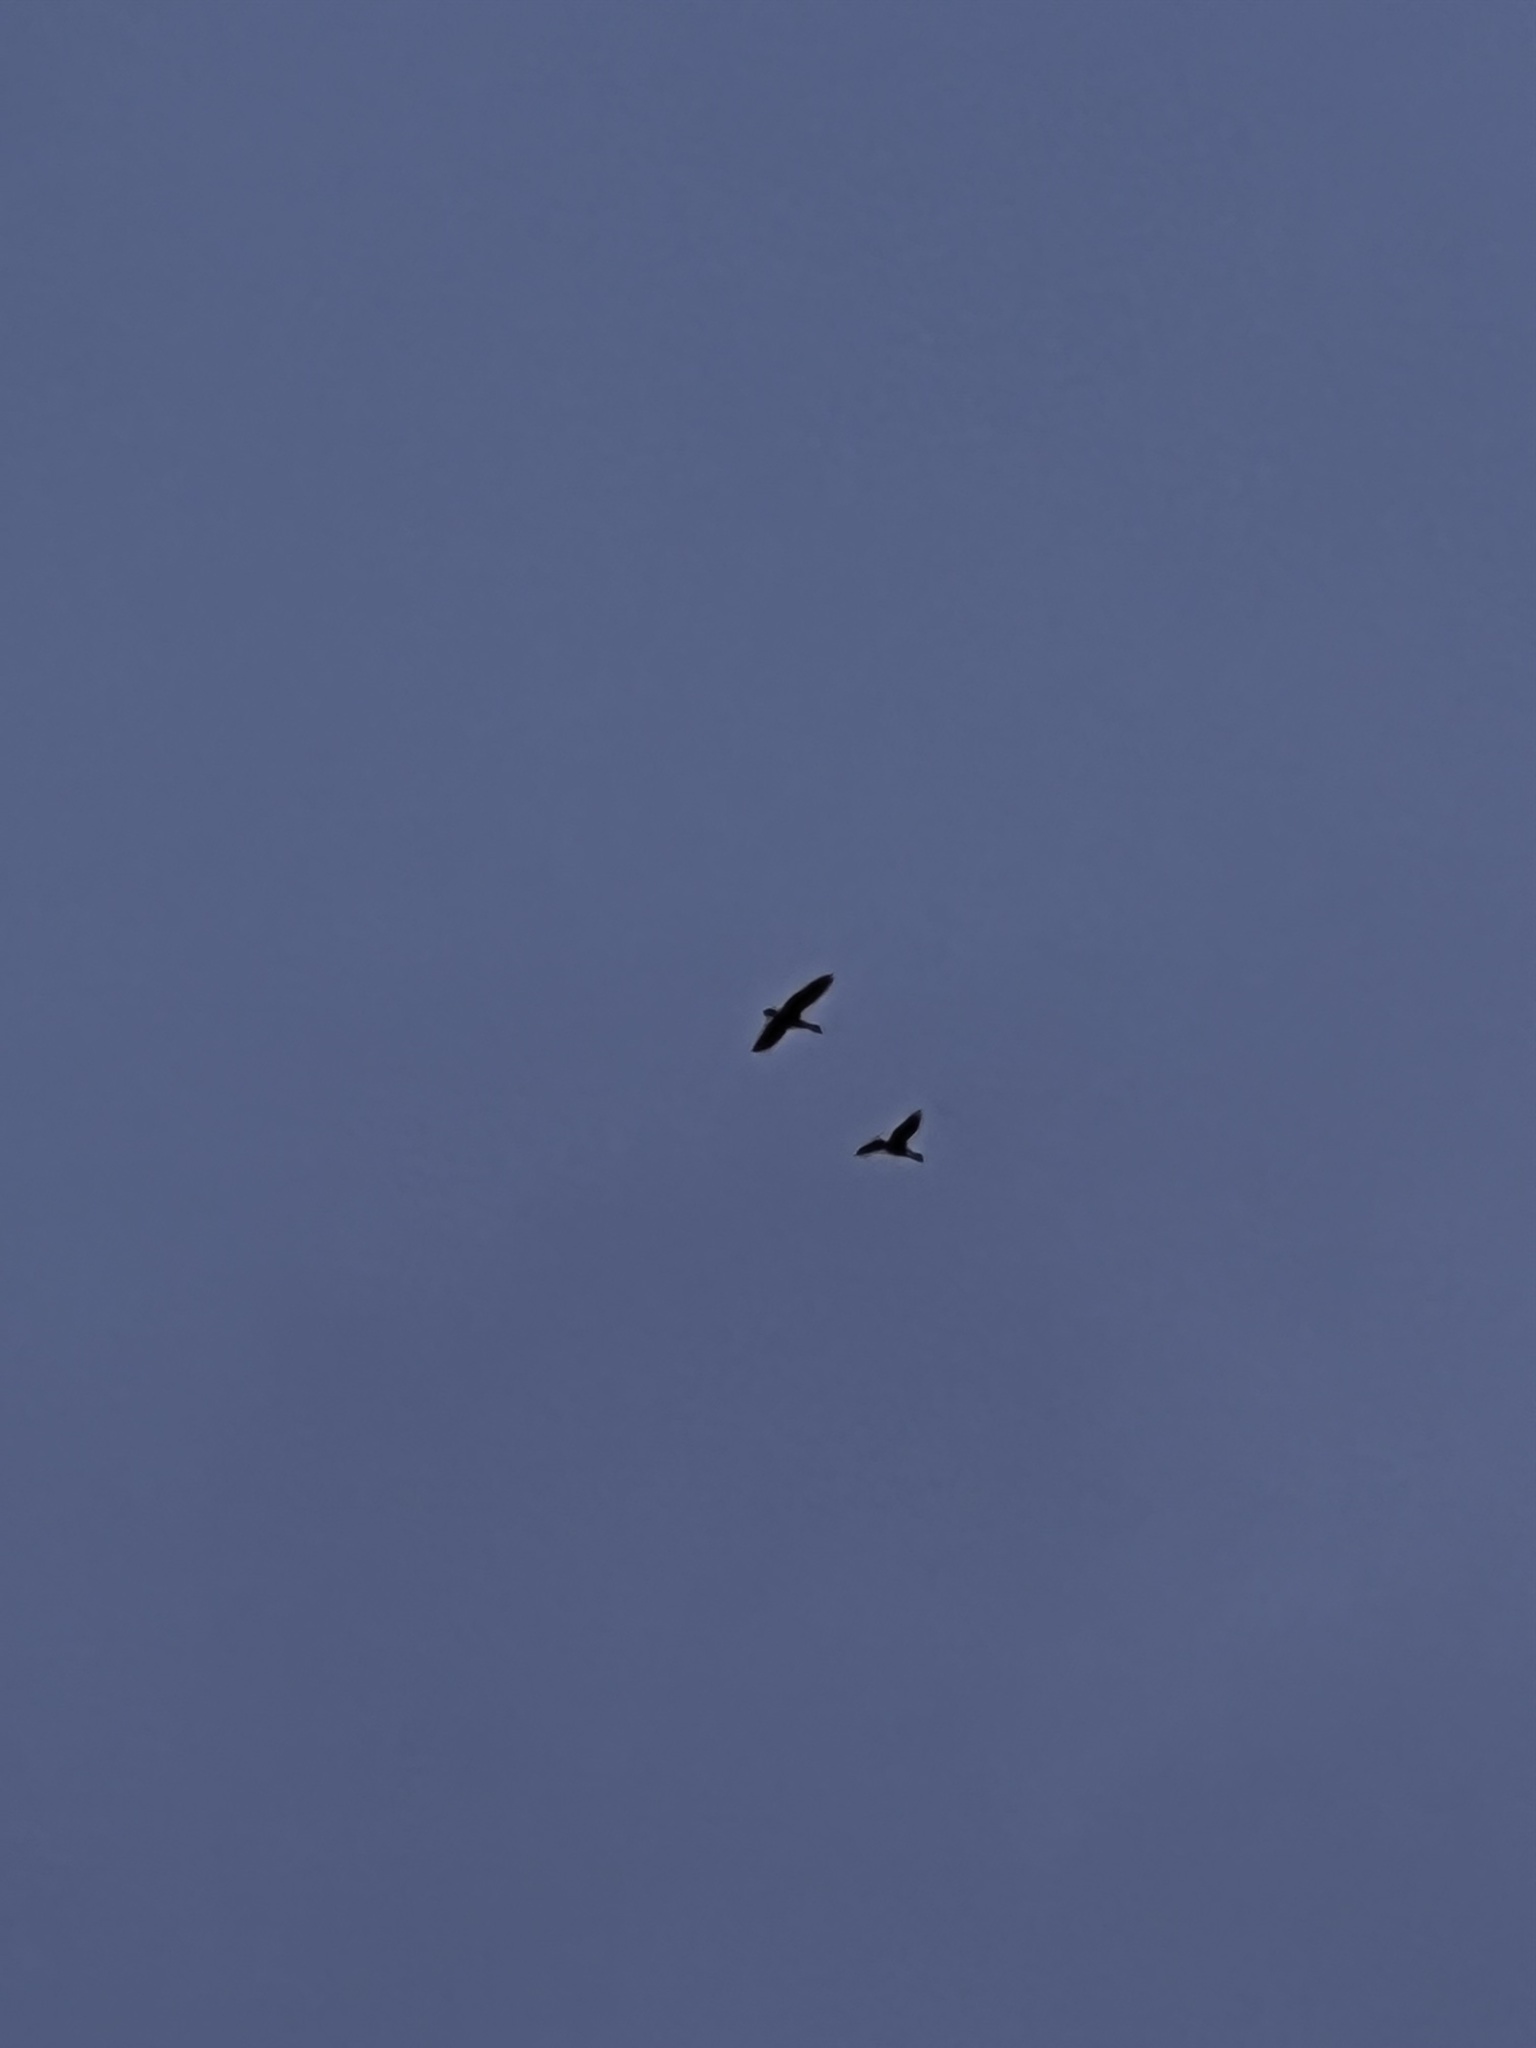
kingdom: Animalia
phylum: Chordata
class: Aves
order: Anseriformes
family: Anatidae
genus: Branta
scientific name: Branta canadensis
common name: Canada goose
